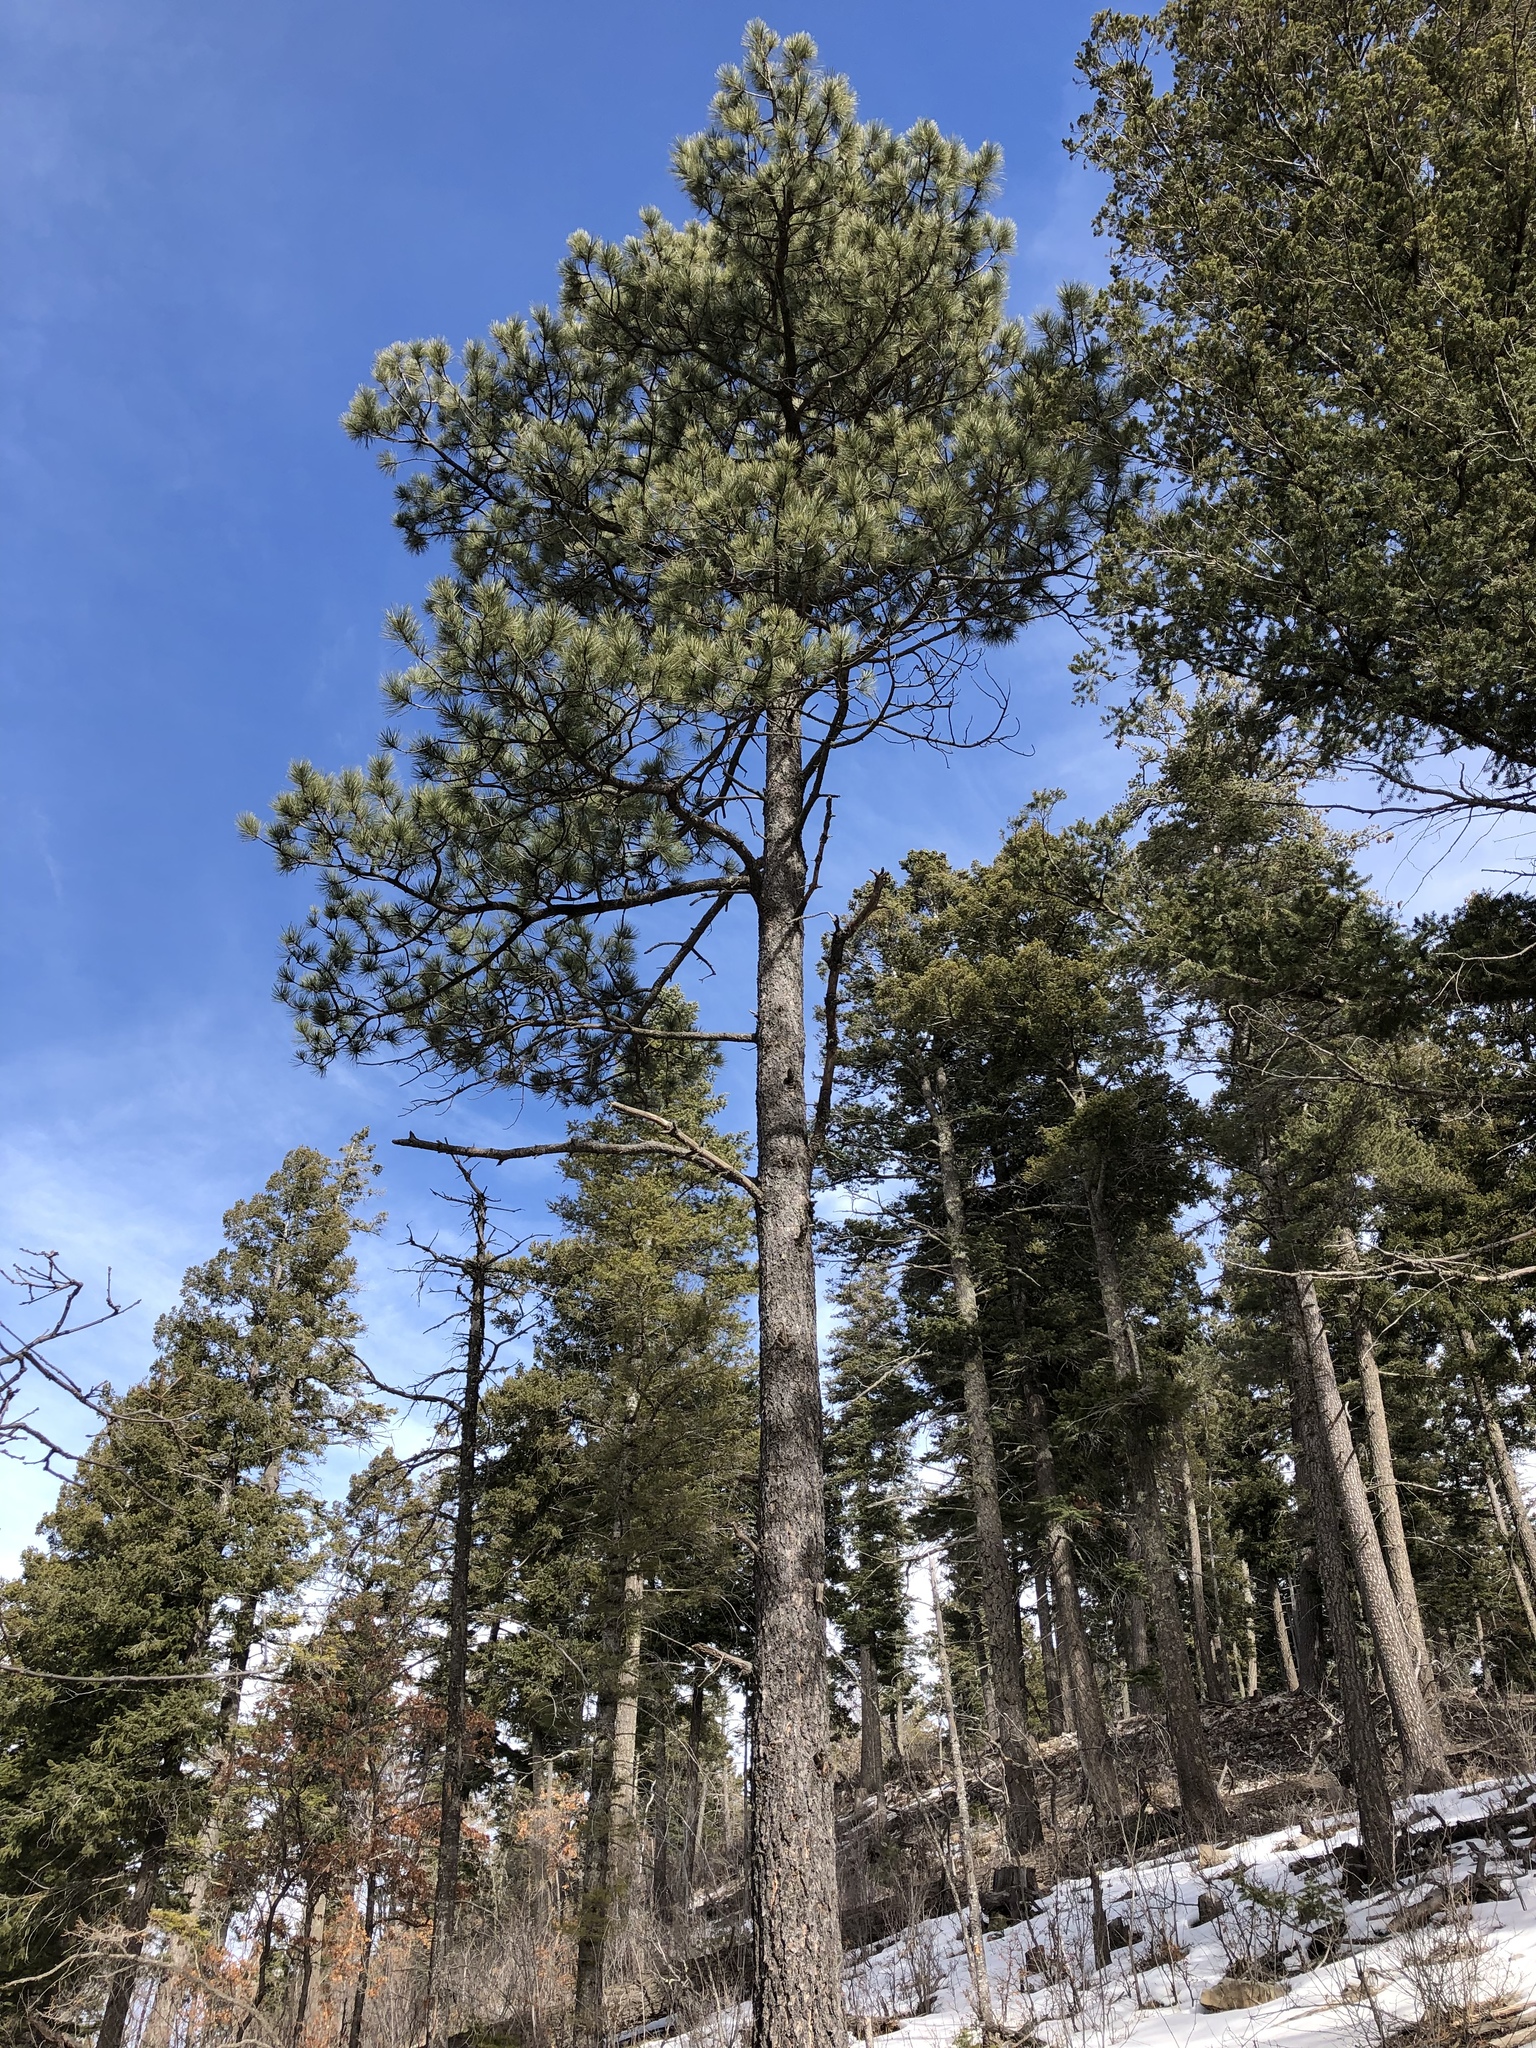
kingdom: Plantae
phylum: Tracheophyta
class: Pinopsida
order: Pinales
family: Pinaceae
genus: Pinus
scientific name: Pinus ponderosa
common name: Western yellow-pine
